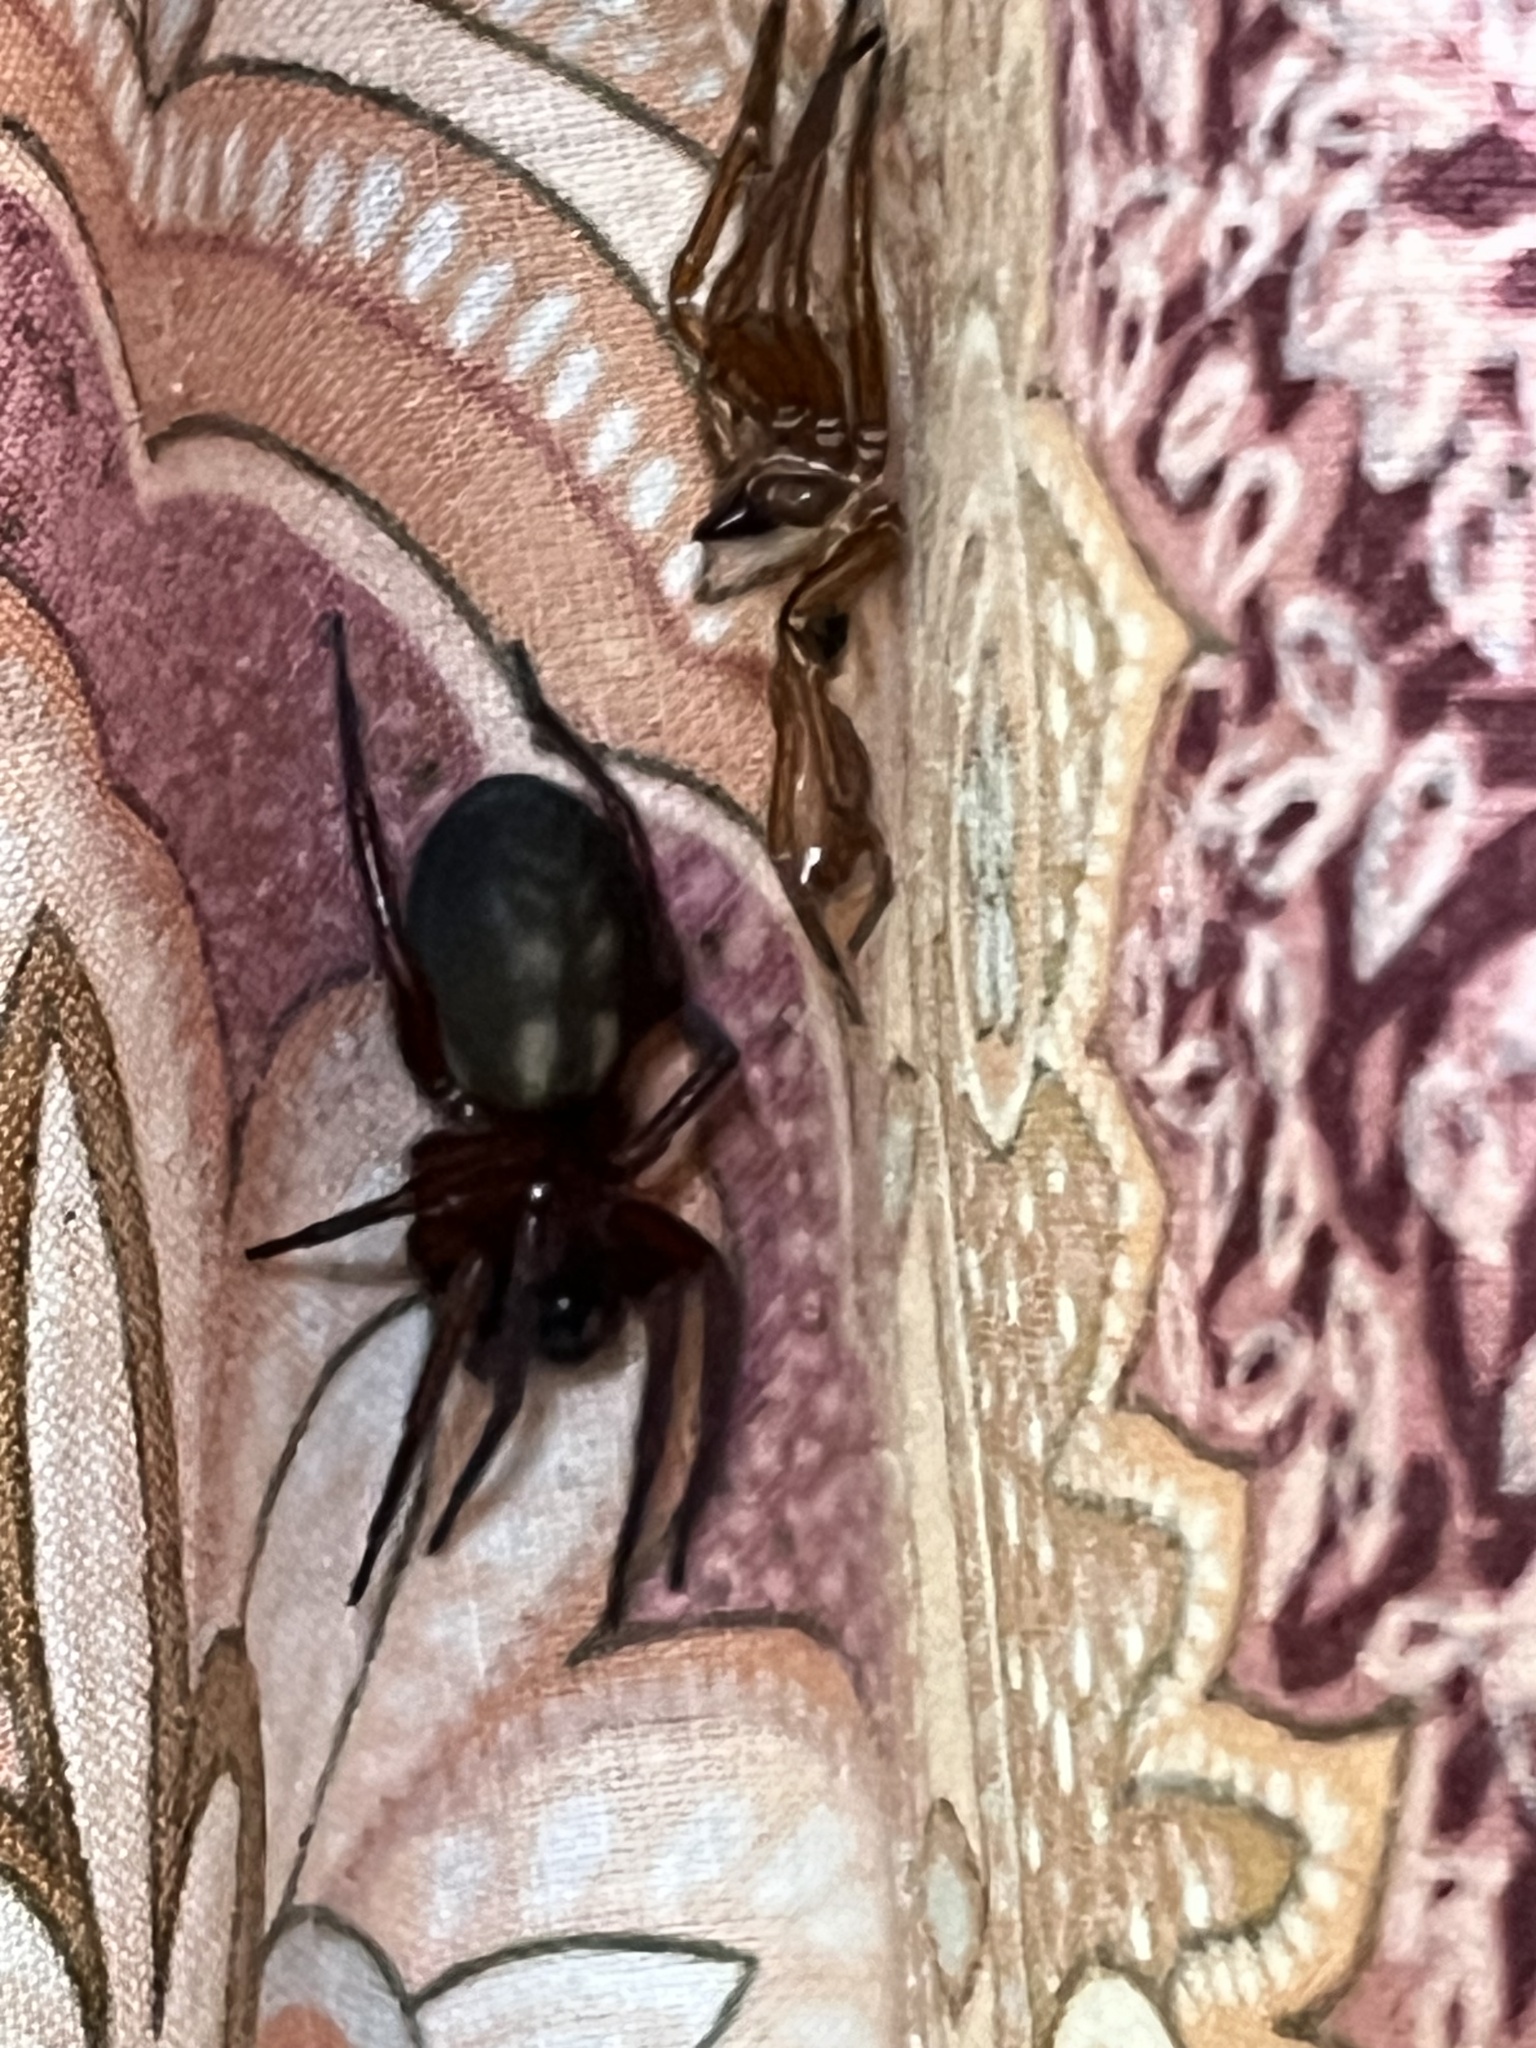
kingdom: Animalia
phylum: Arthropoda
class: Arachnida
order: Araneae
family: Amaurobiidae
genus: Callobius
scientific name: Callobius severus
